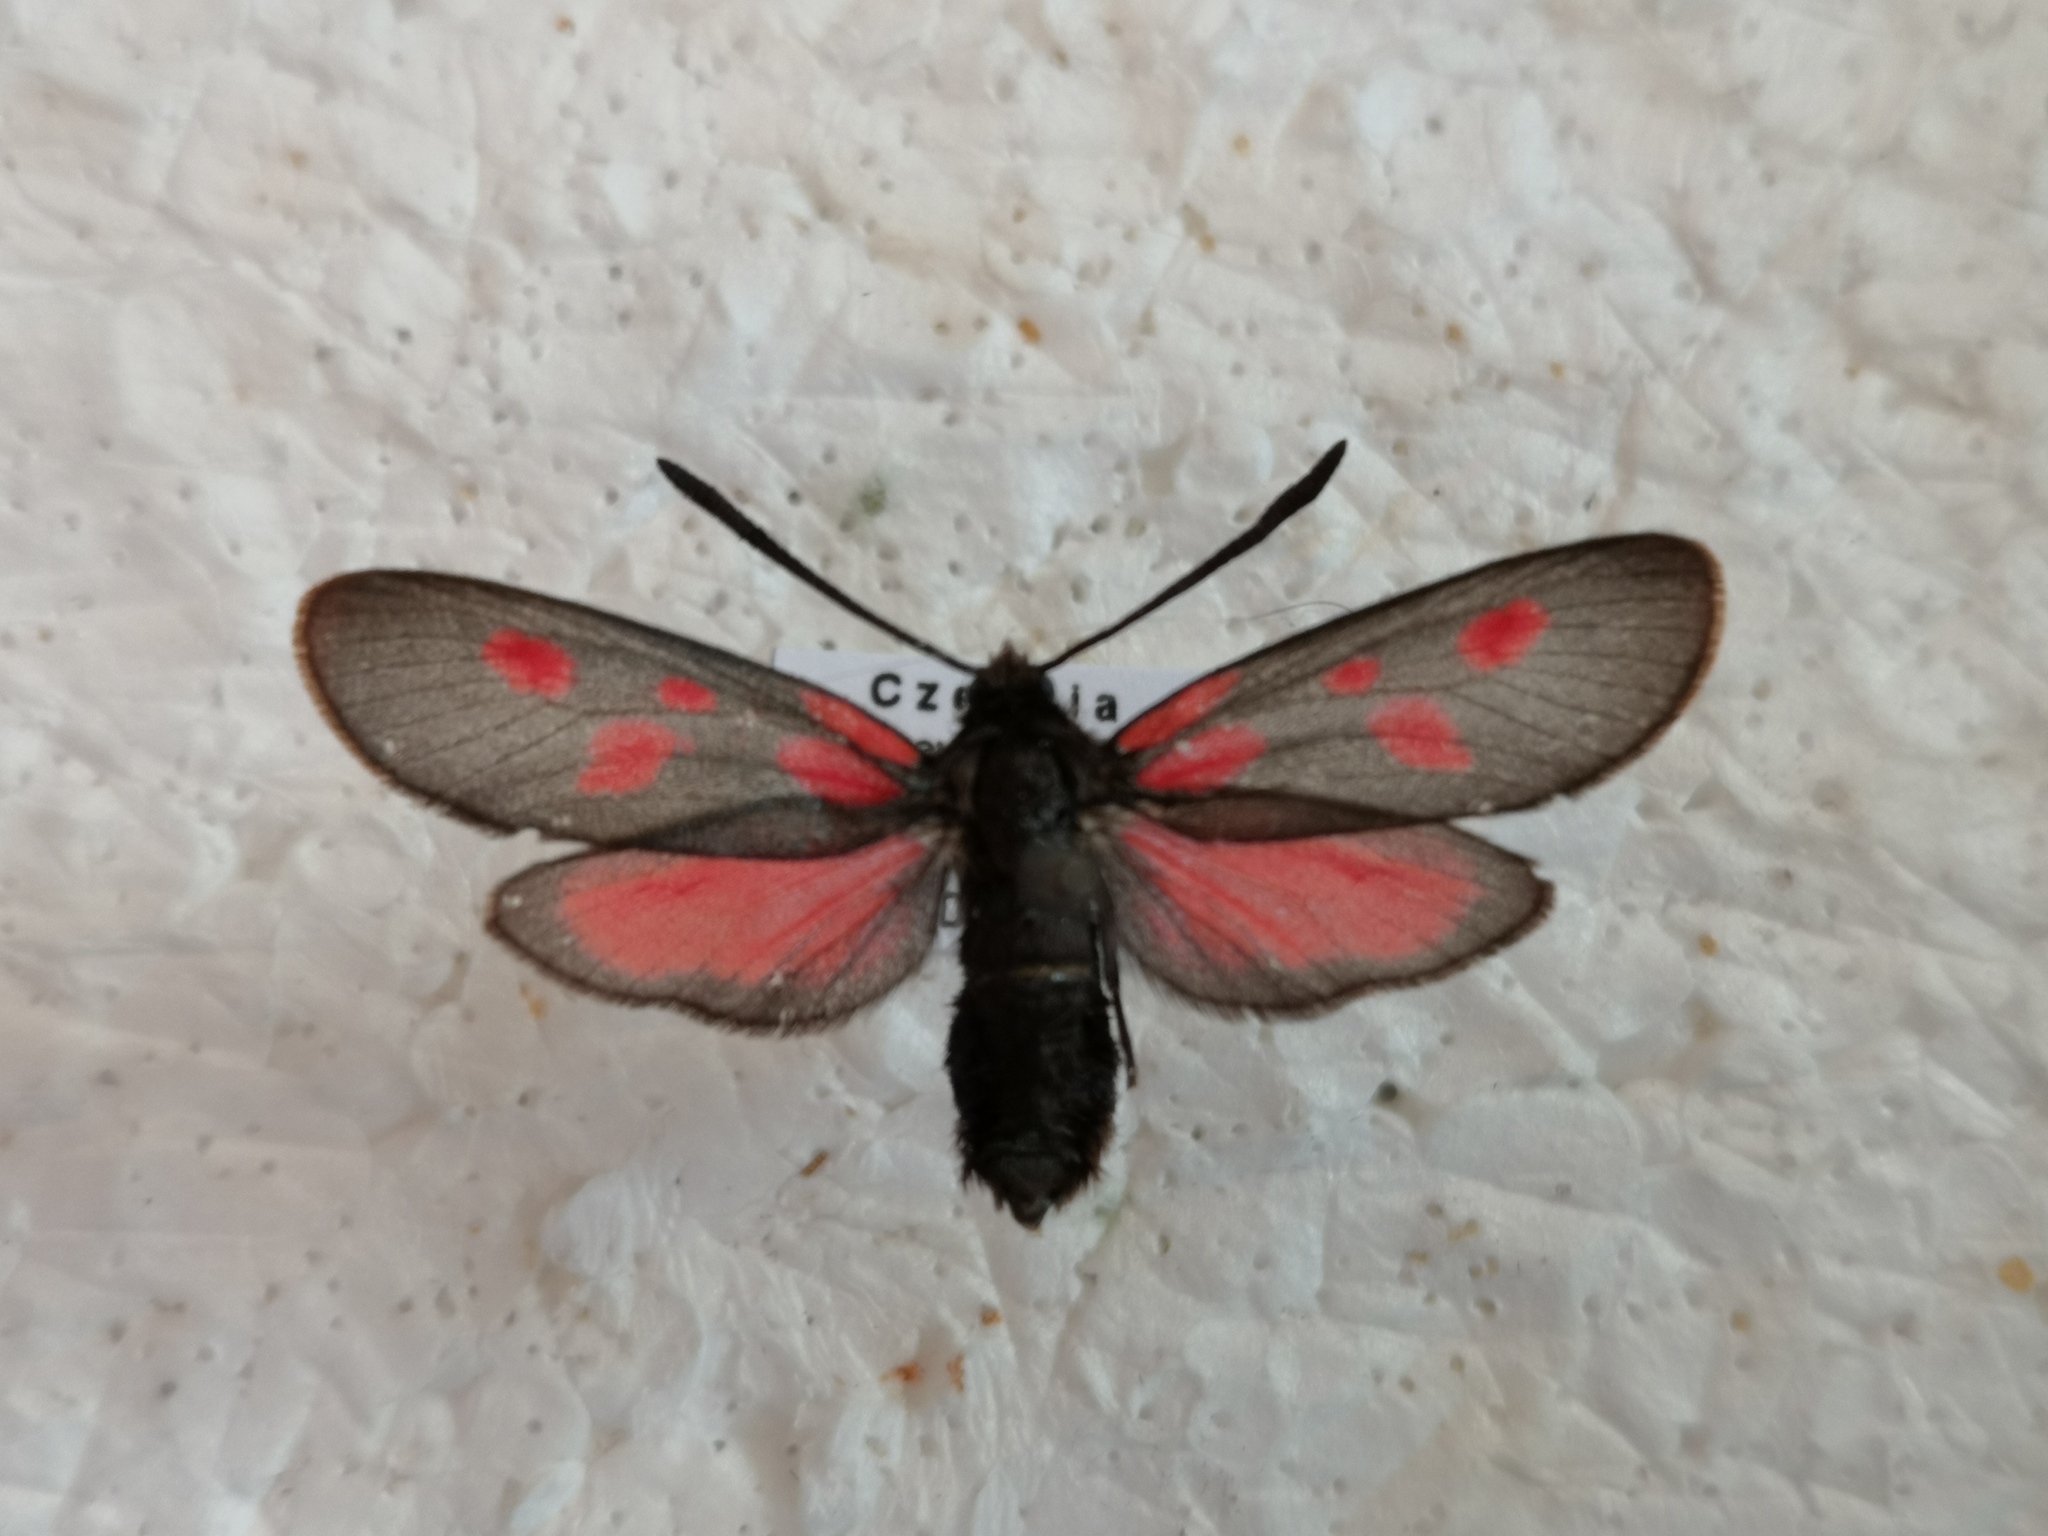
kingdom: Animalia
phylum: Arthropoda
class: Insecta
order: Lepidoptera
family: Zygaenidae
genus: Zygaena
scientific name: Zygaena viciae
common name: New forest burnet
